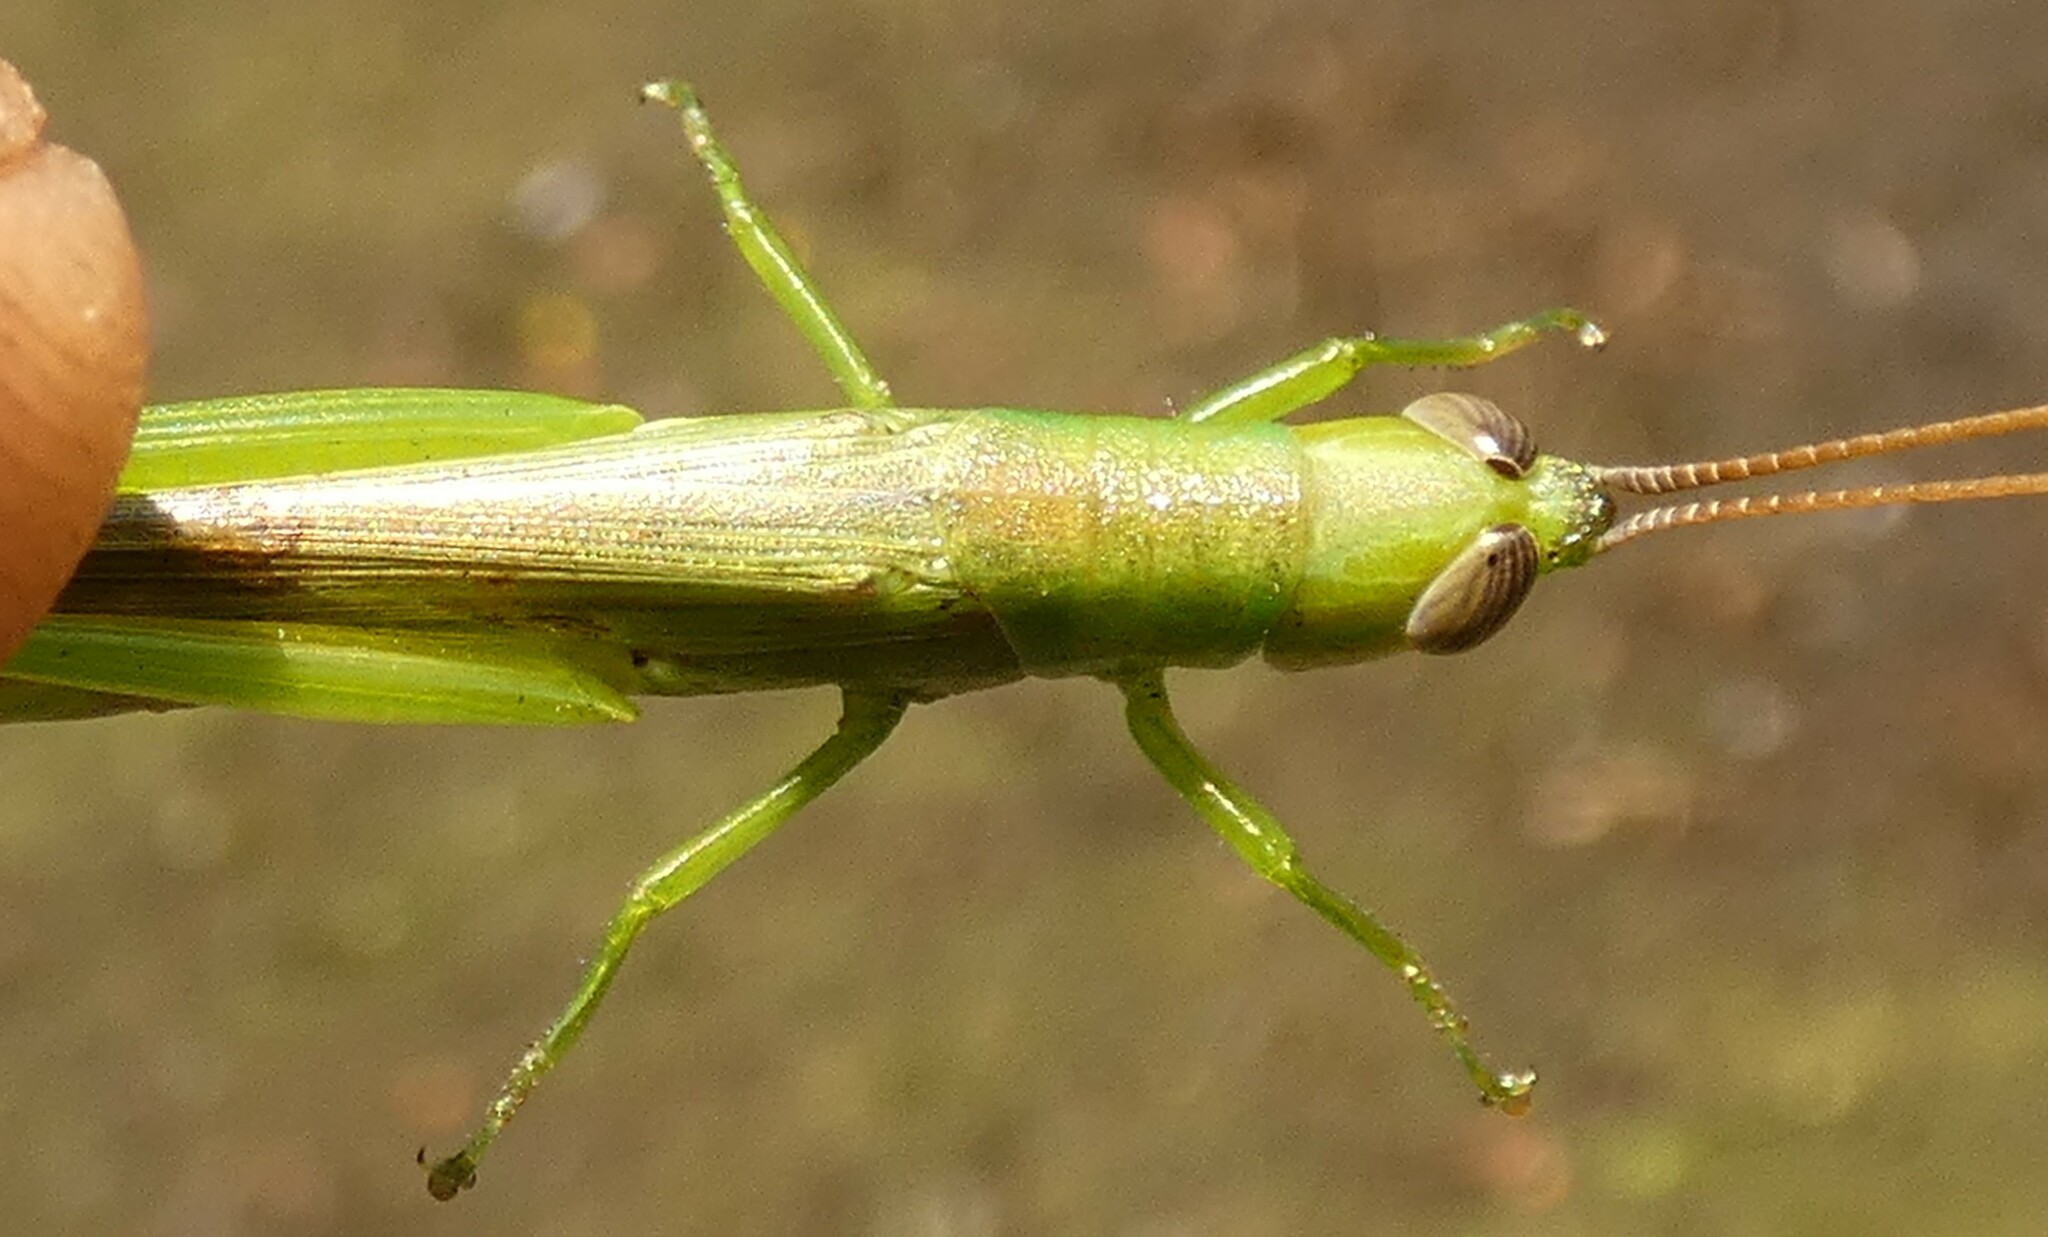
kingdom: Animalia
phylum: Arthropoda
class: Insecta
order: Orthoptera
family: Acrididae
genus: Stenacris
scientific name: Stenacris vitreipennis
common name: Glassy-winged toothpick grasshopper
